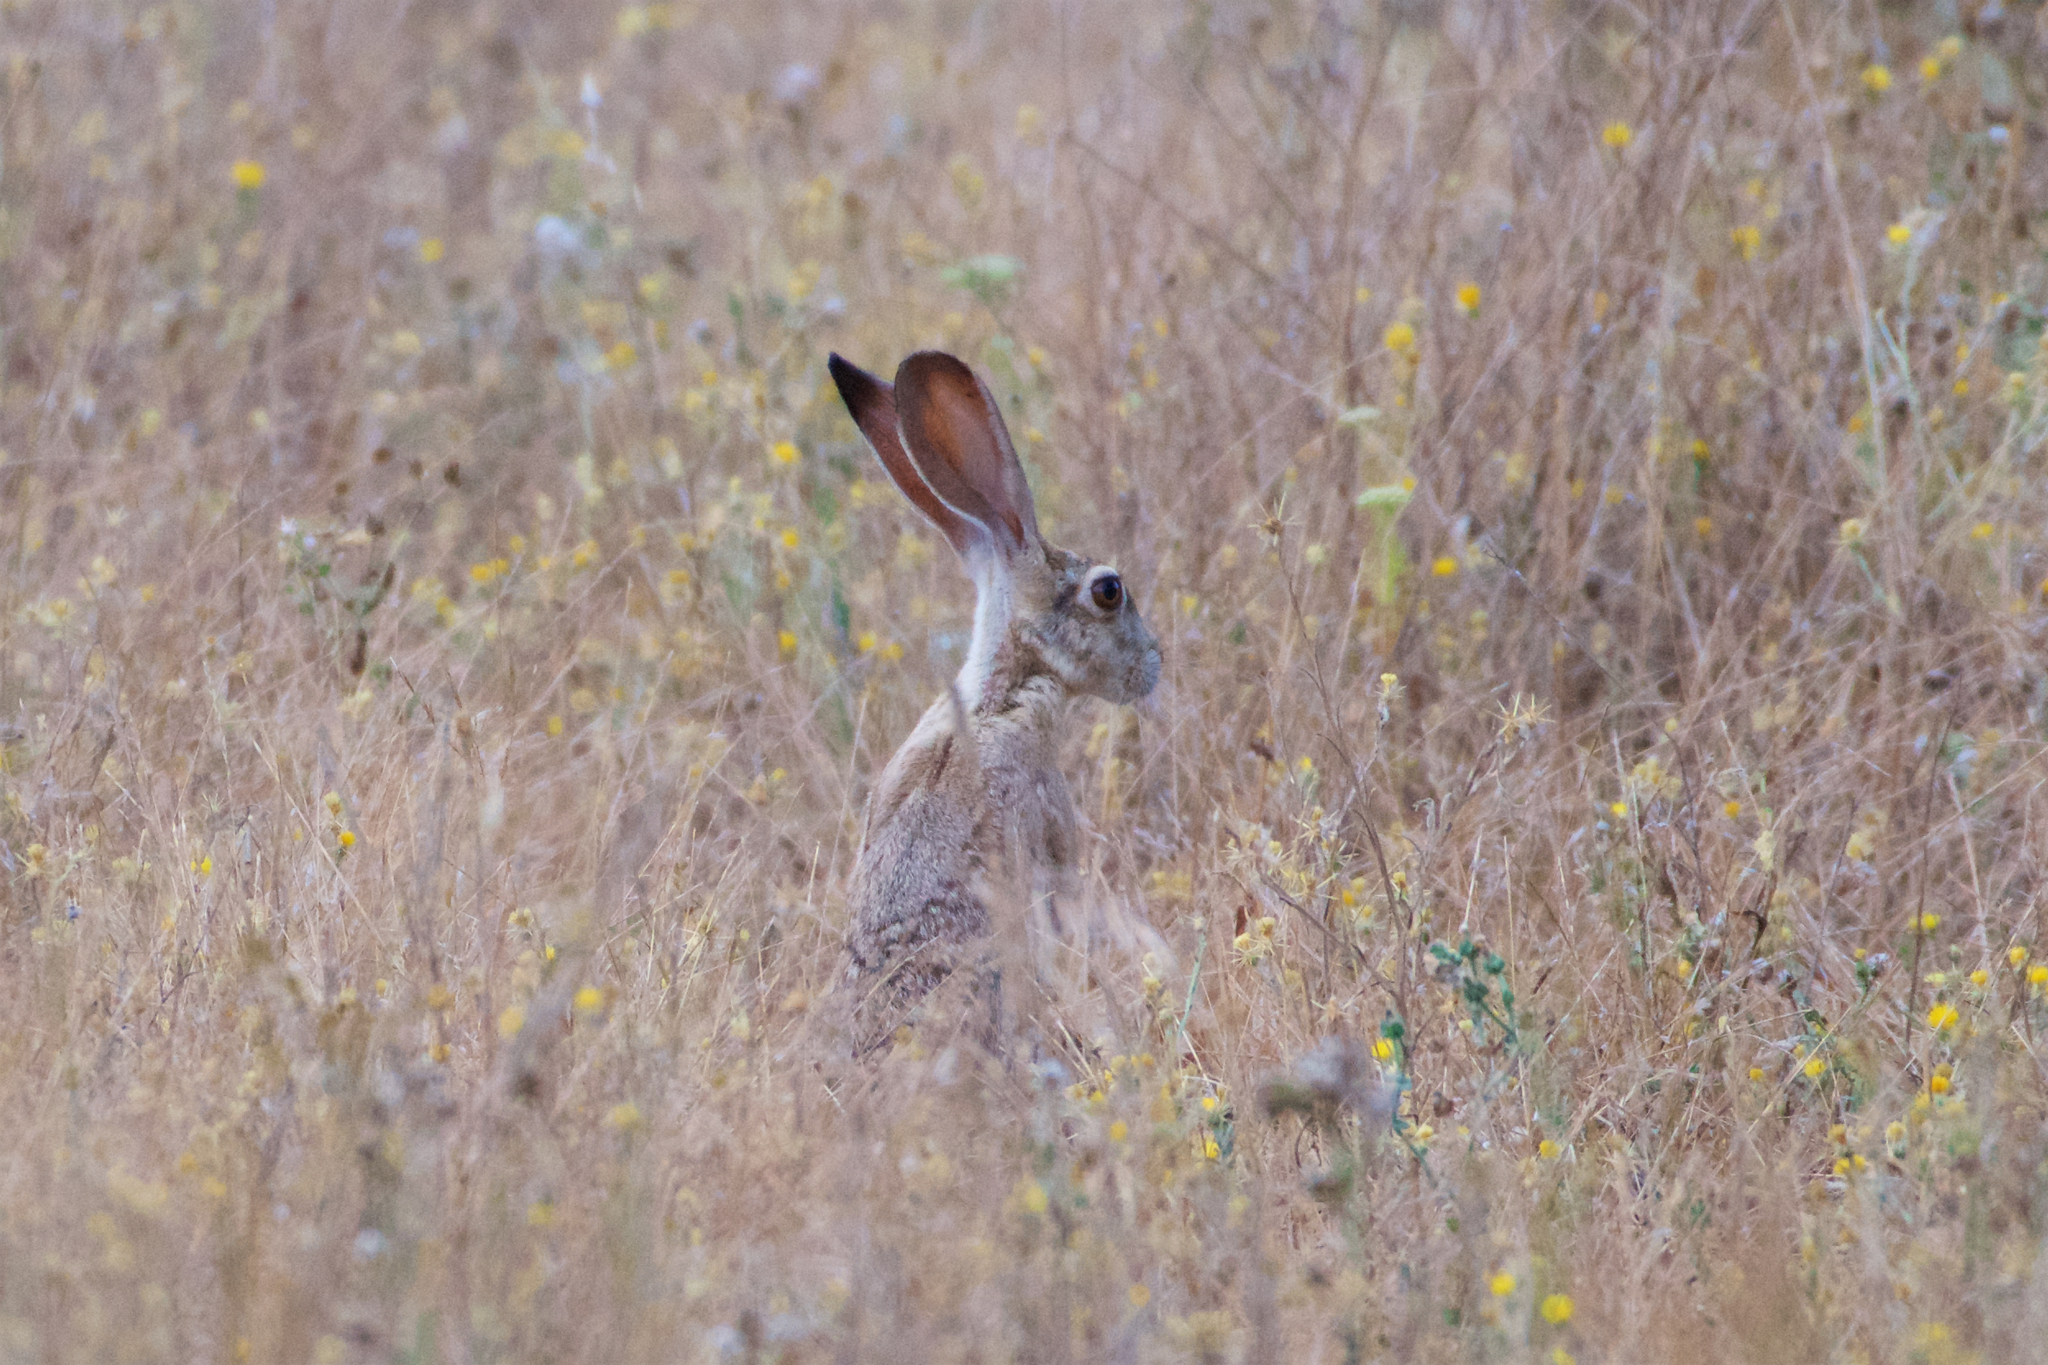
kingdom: Animalia
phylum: Chordata
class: Mammalia
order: Lagomorpha
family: Leporidae
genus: Lepus
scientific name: Lepus californicus
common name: Black-tailed jackrabbit
